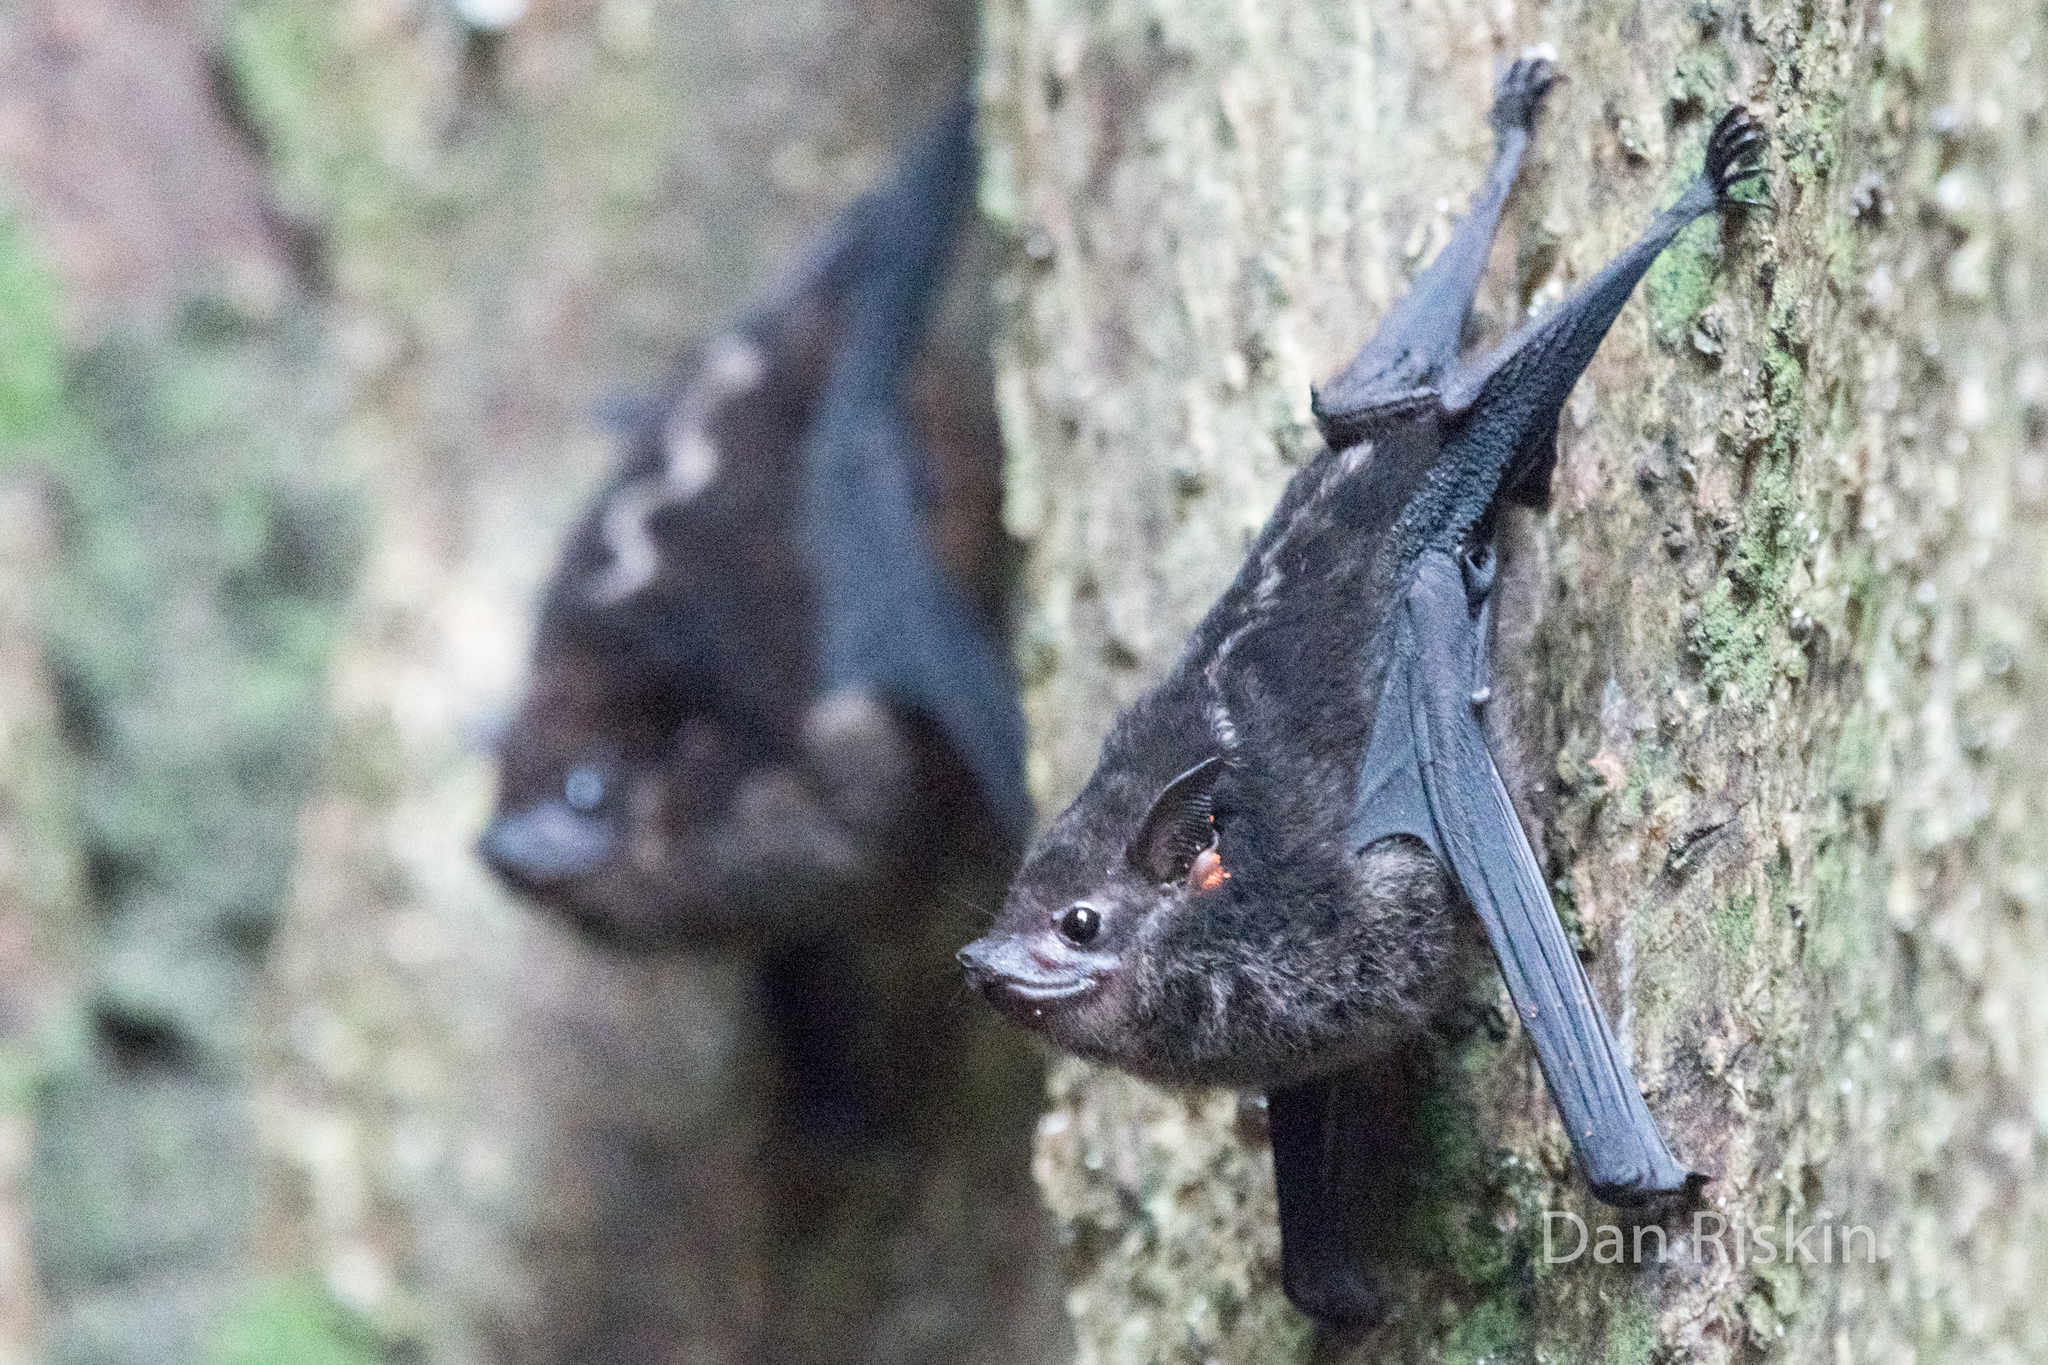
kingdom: Animalia
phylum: Chordata
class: Mammalia
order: Chiroptera
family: Emballonuridae
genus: Saccopteryx
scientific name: Saccopteryx bilineata
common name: Greater sac-winged bat
